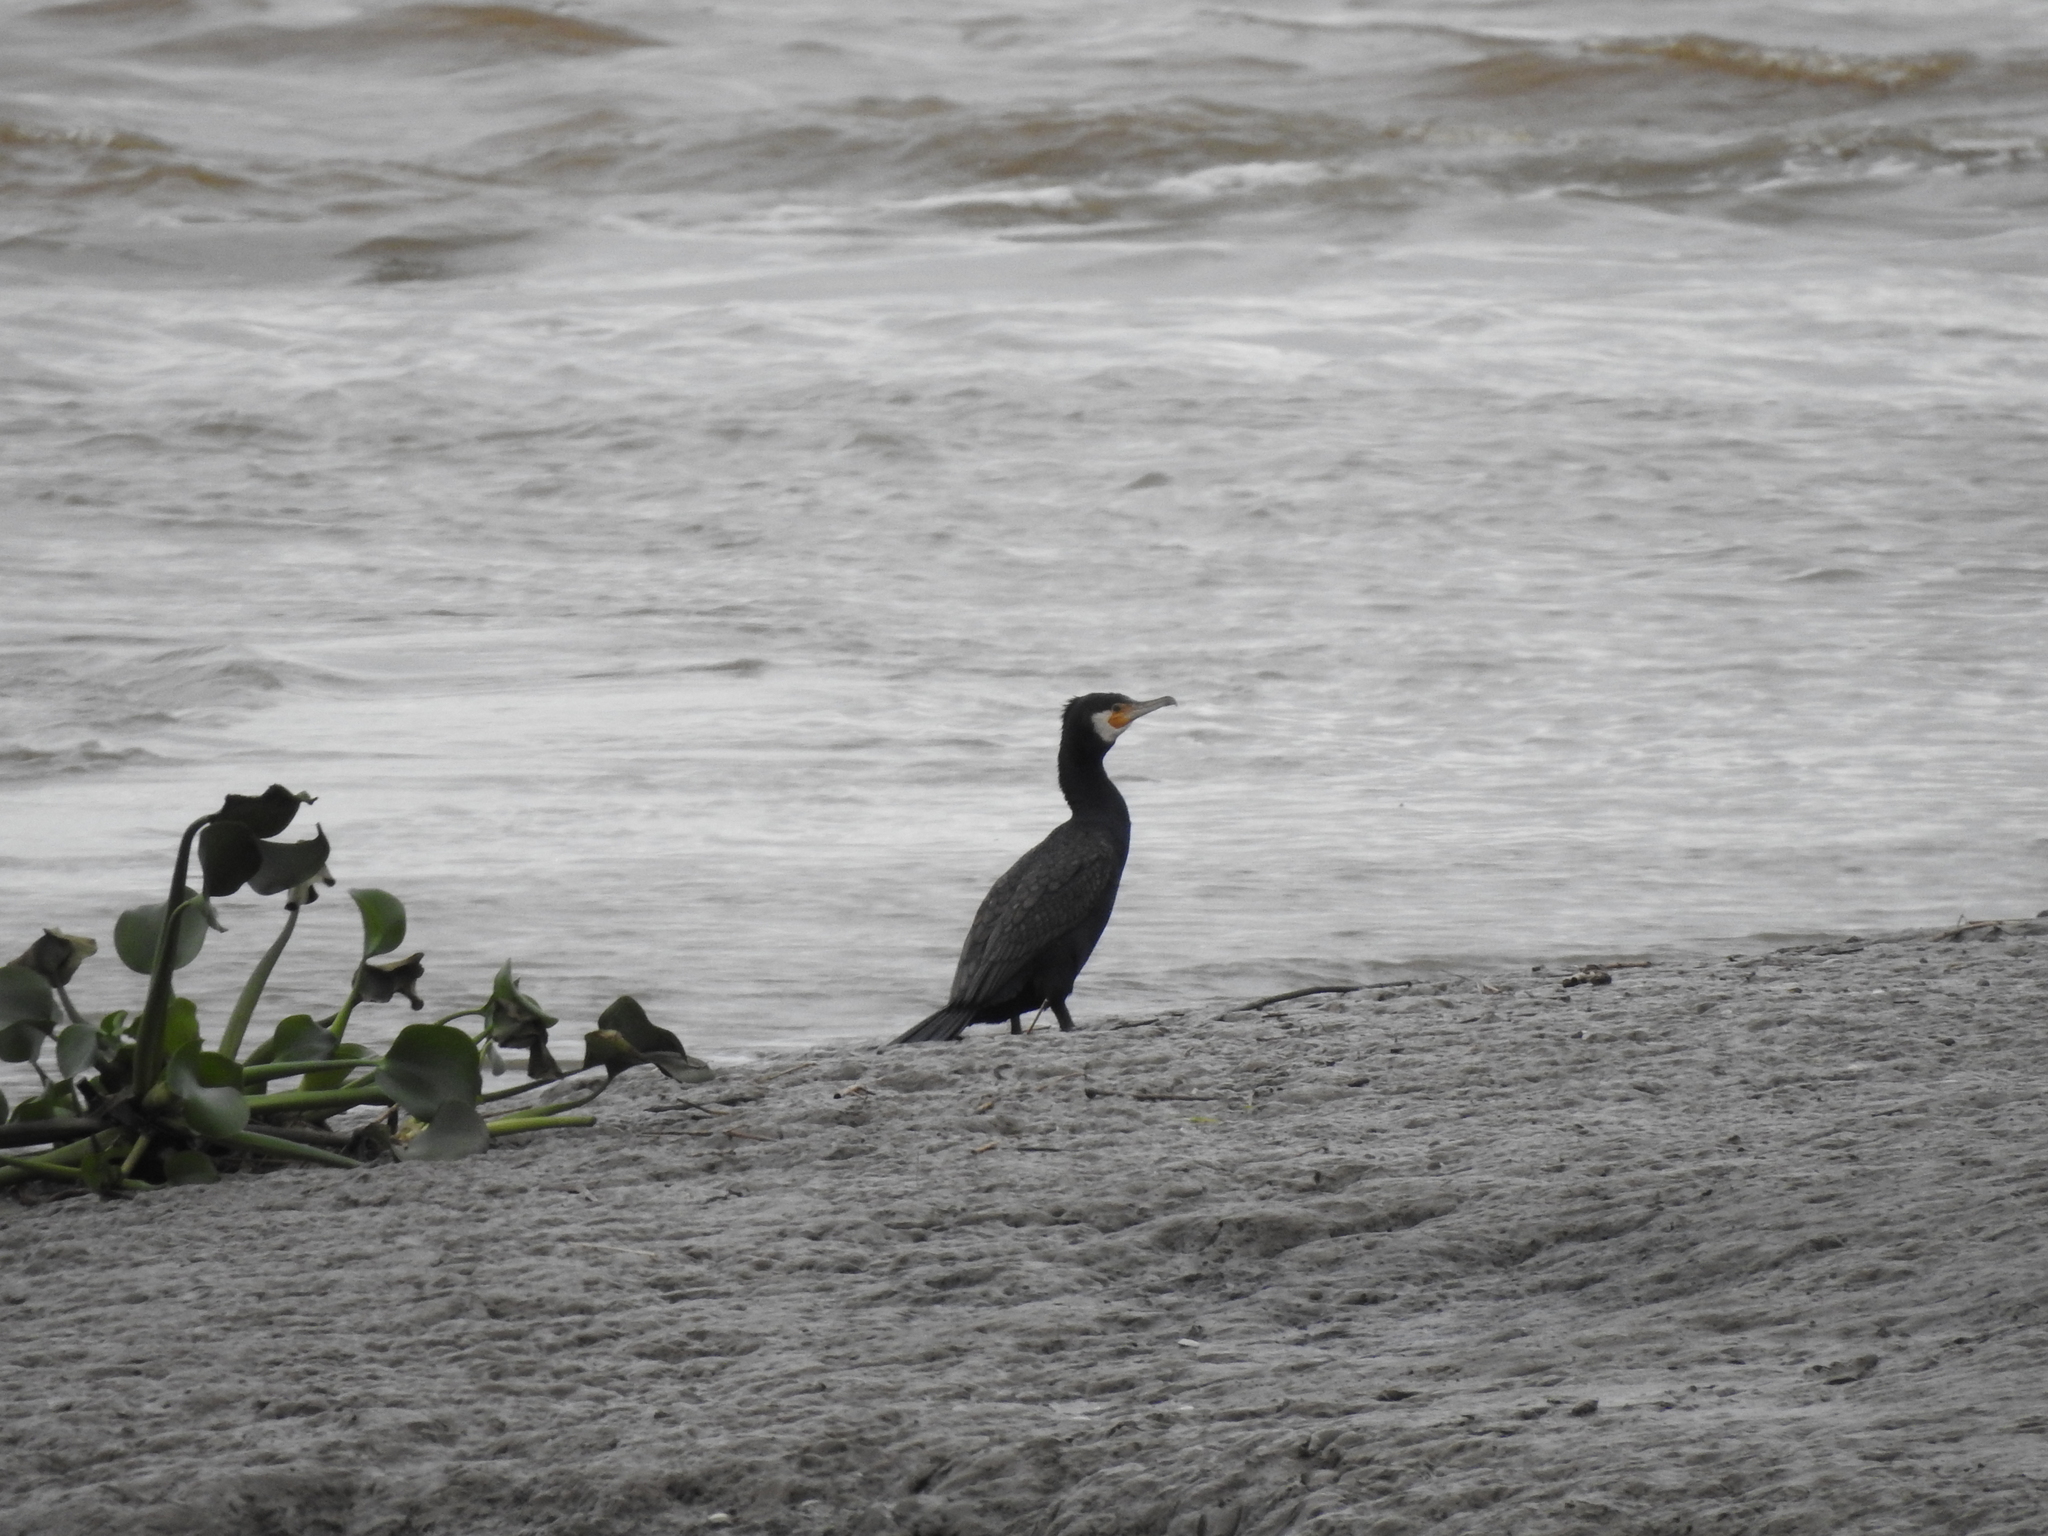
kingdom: Animalia
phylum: Chordata
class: Aves
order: Suliformes
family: Phalacrocoracidae
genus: Phalacrocorax
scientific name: Phalacrocorax carbo
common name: Great cormorant
